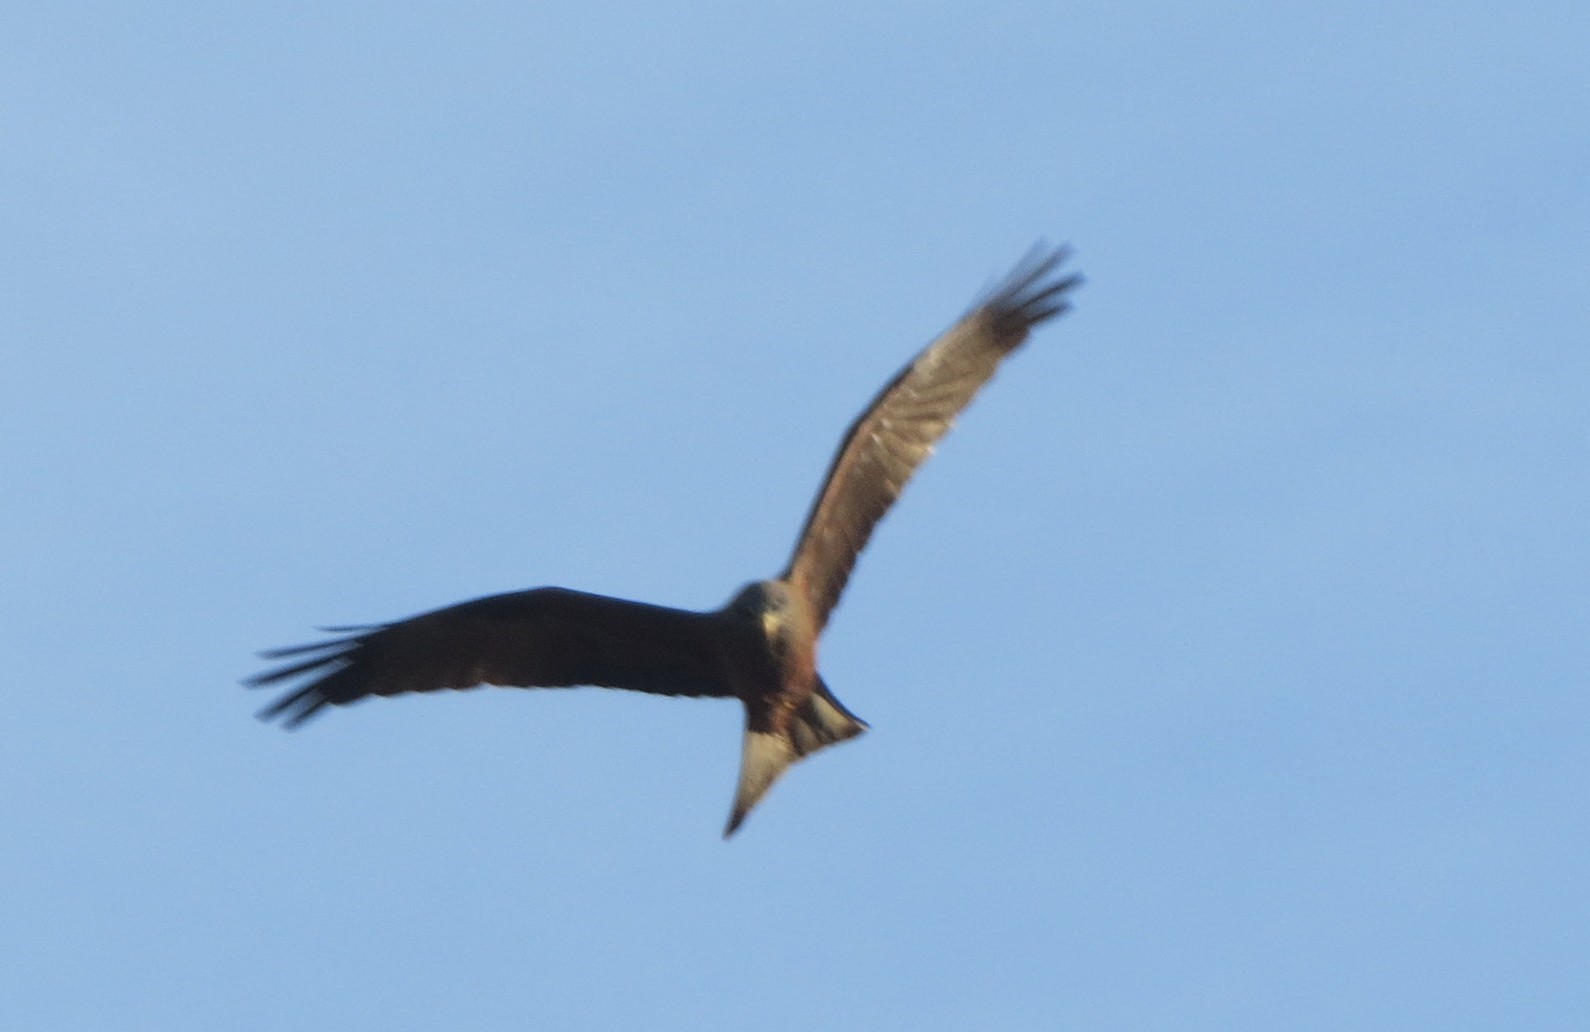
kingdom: Animalia
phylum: Chordata
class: Aves
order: Accipitriformes
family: Accipitridae
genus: Milvus
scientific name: Milvus migrans
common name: Black kite
